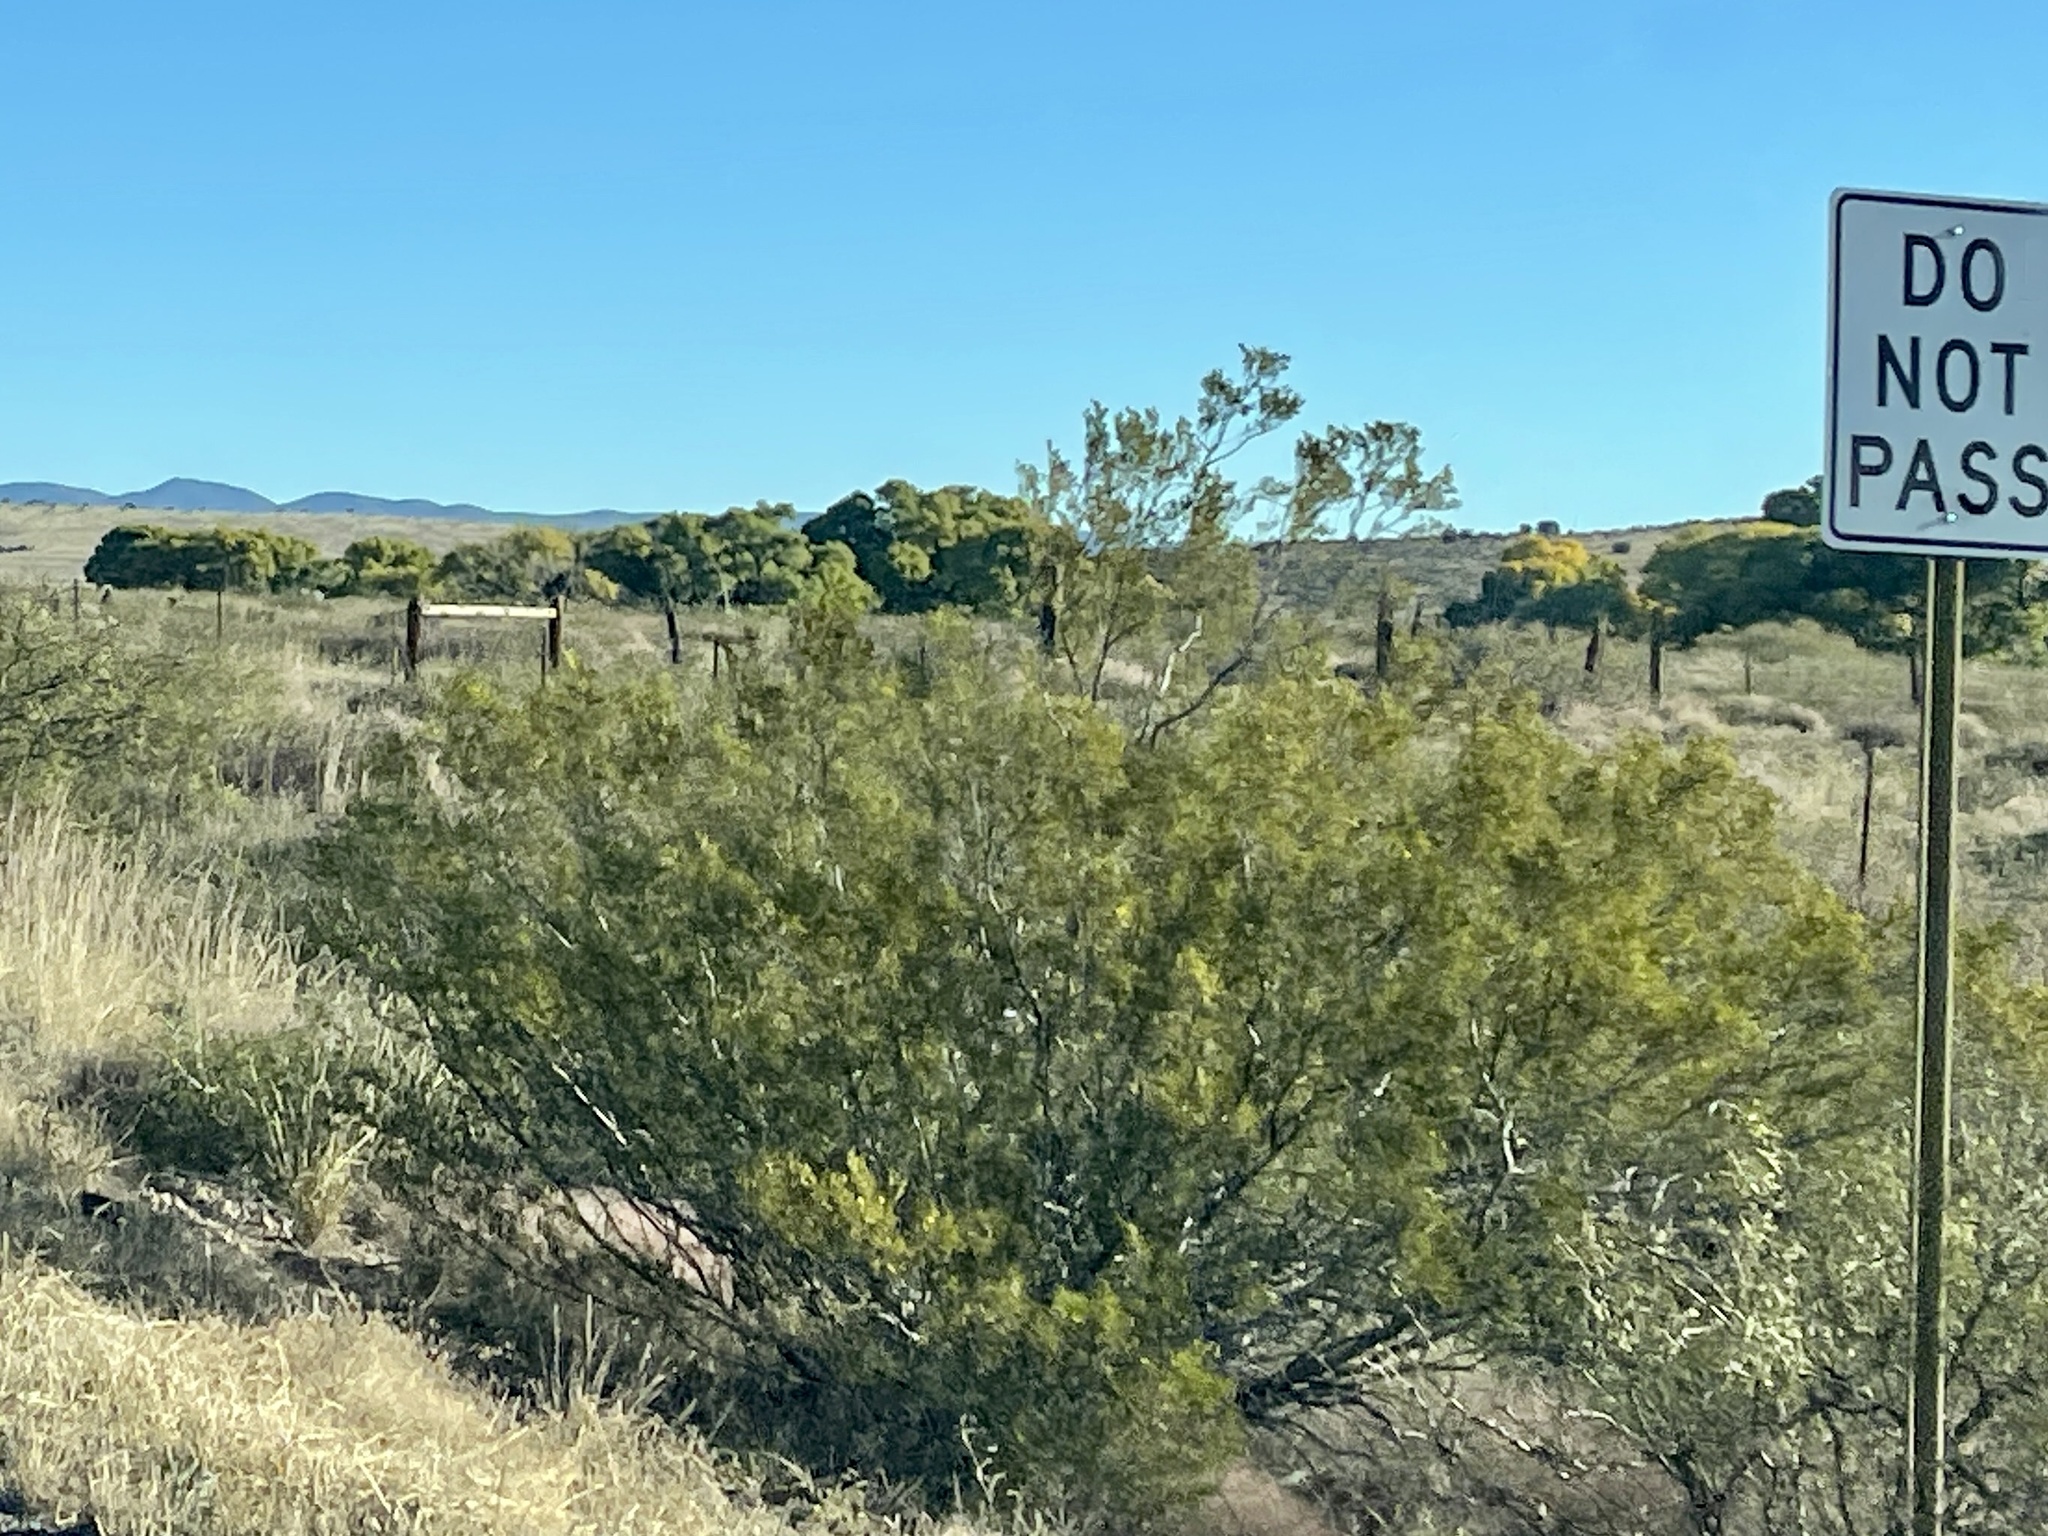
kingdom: Plantae
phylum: Tracheophyta
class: Magnoliopsida
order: Zygophyllales
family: Zygophyllaceae
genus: Larrea
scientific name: Larrea tridentata
